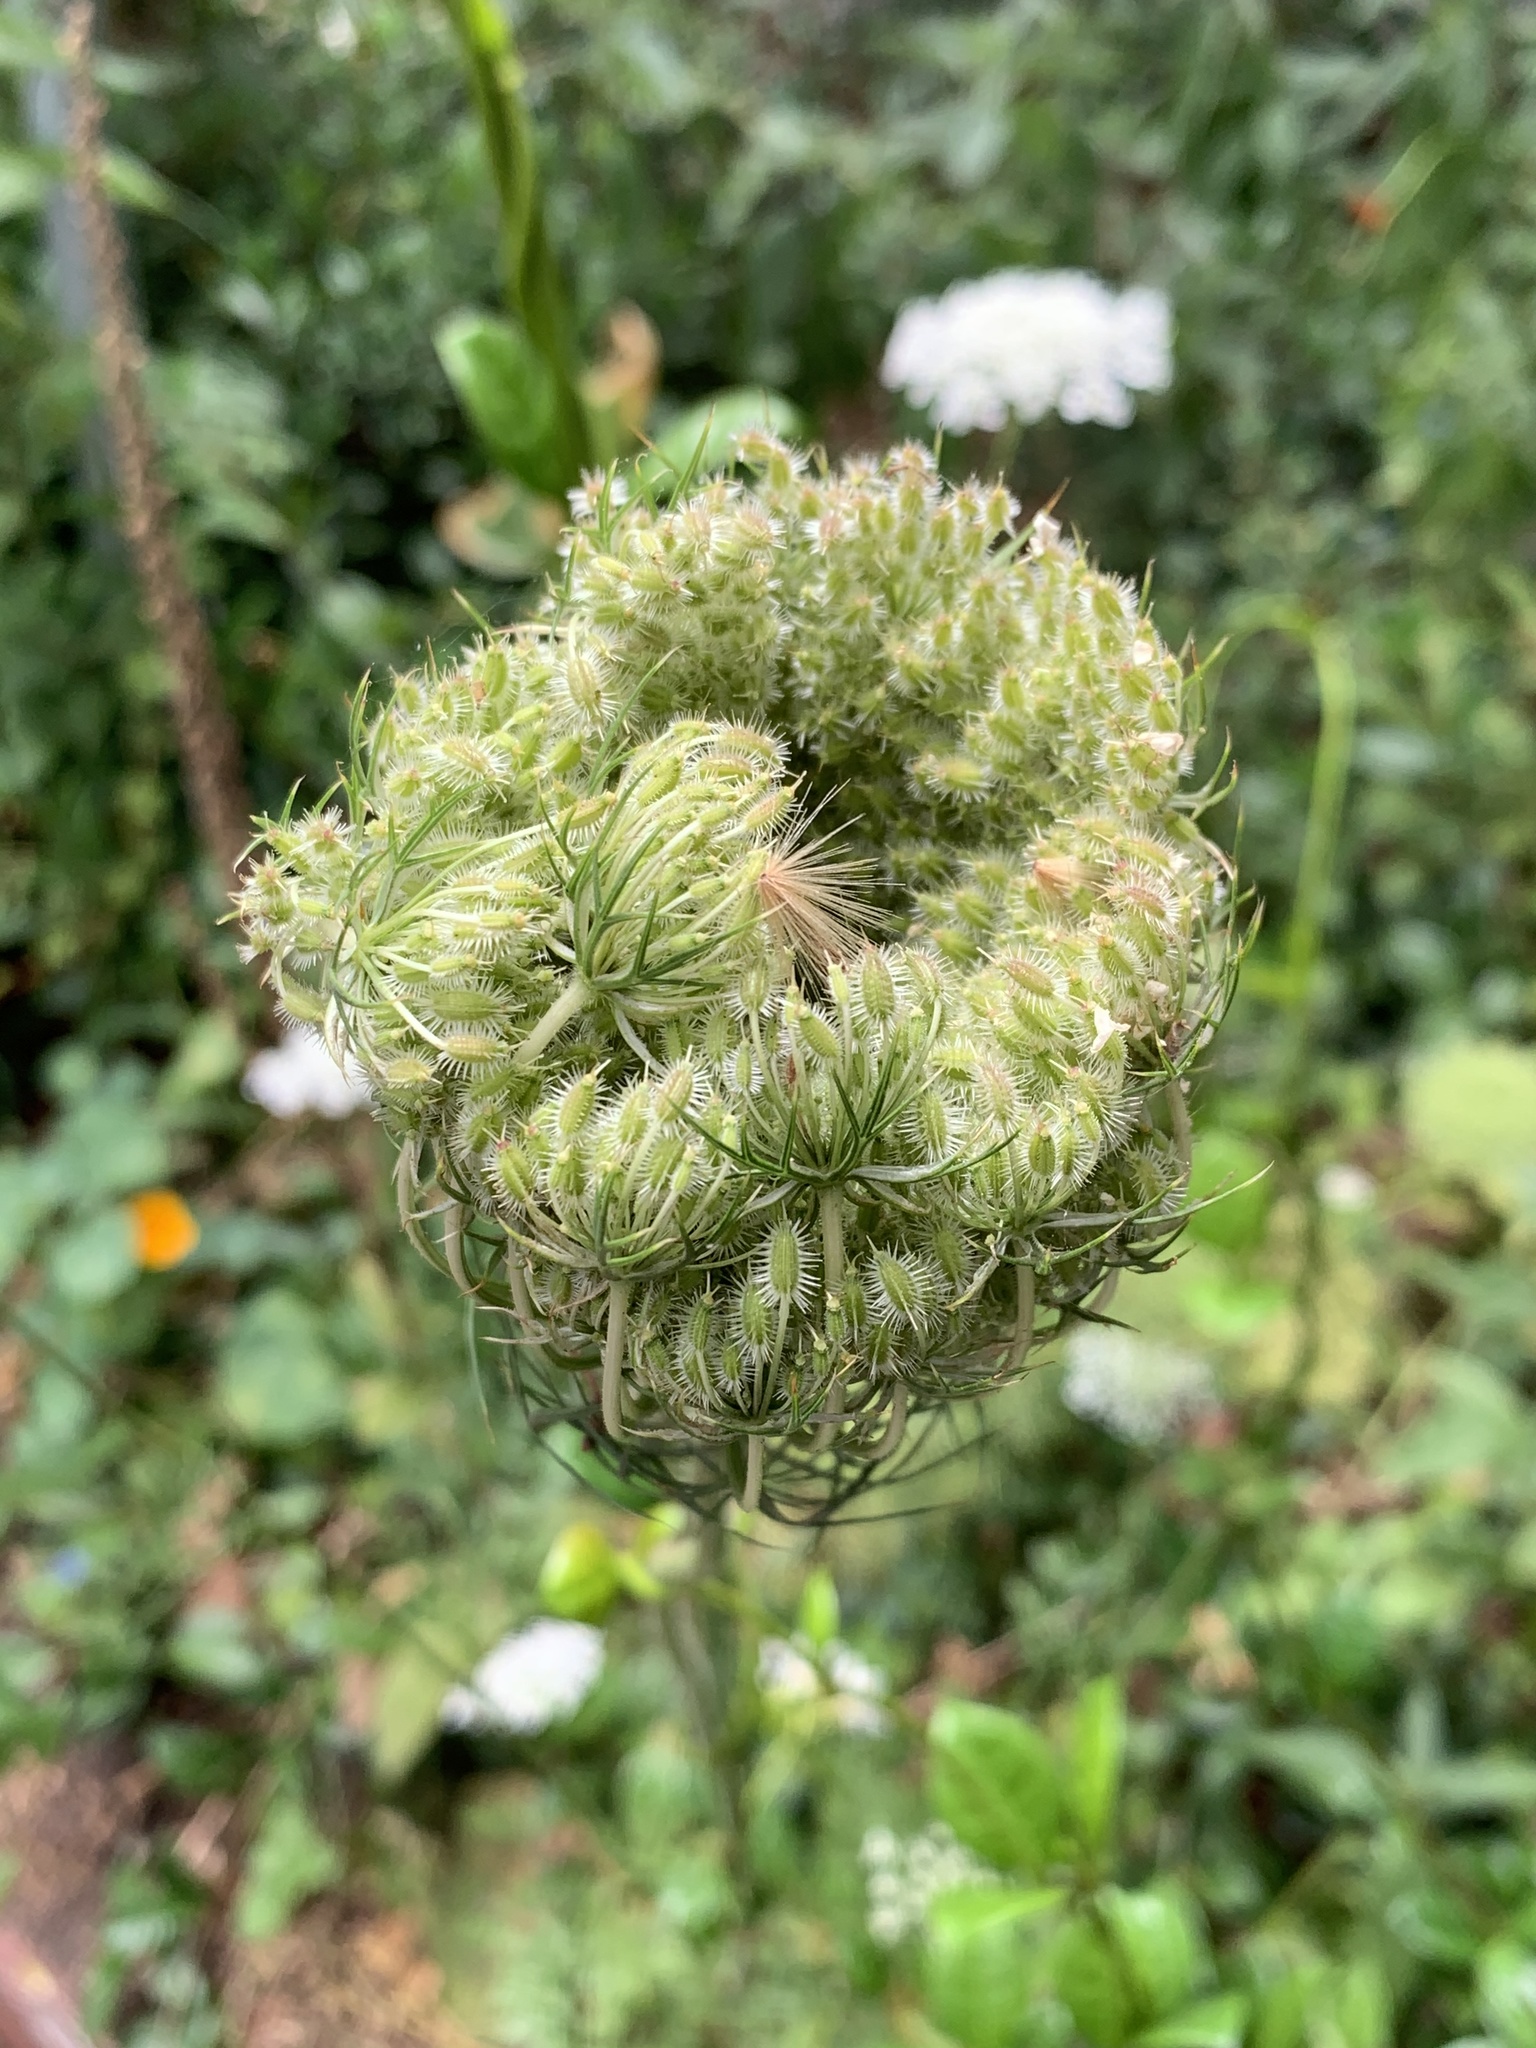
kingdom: Plantae
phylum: Tracheophyta
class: Magnoliopsida
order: Apiales
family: Apiaceae
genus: Daucus
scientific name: Daucus carota
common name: Wild carrot
